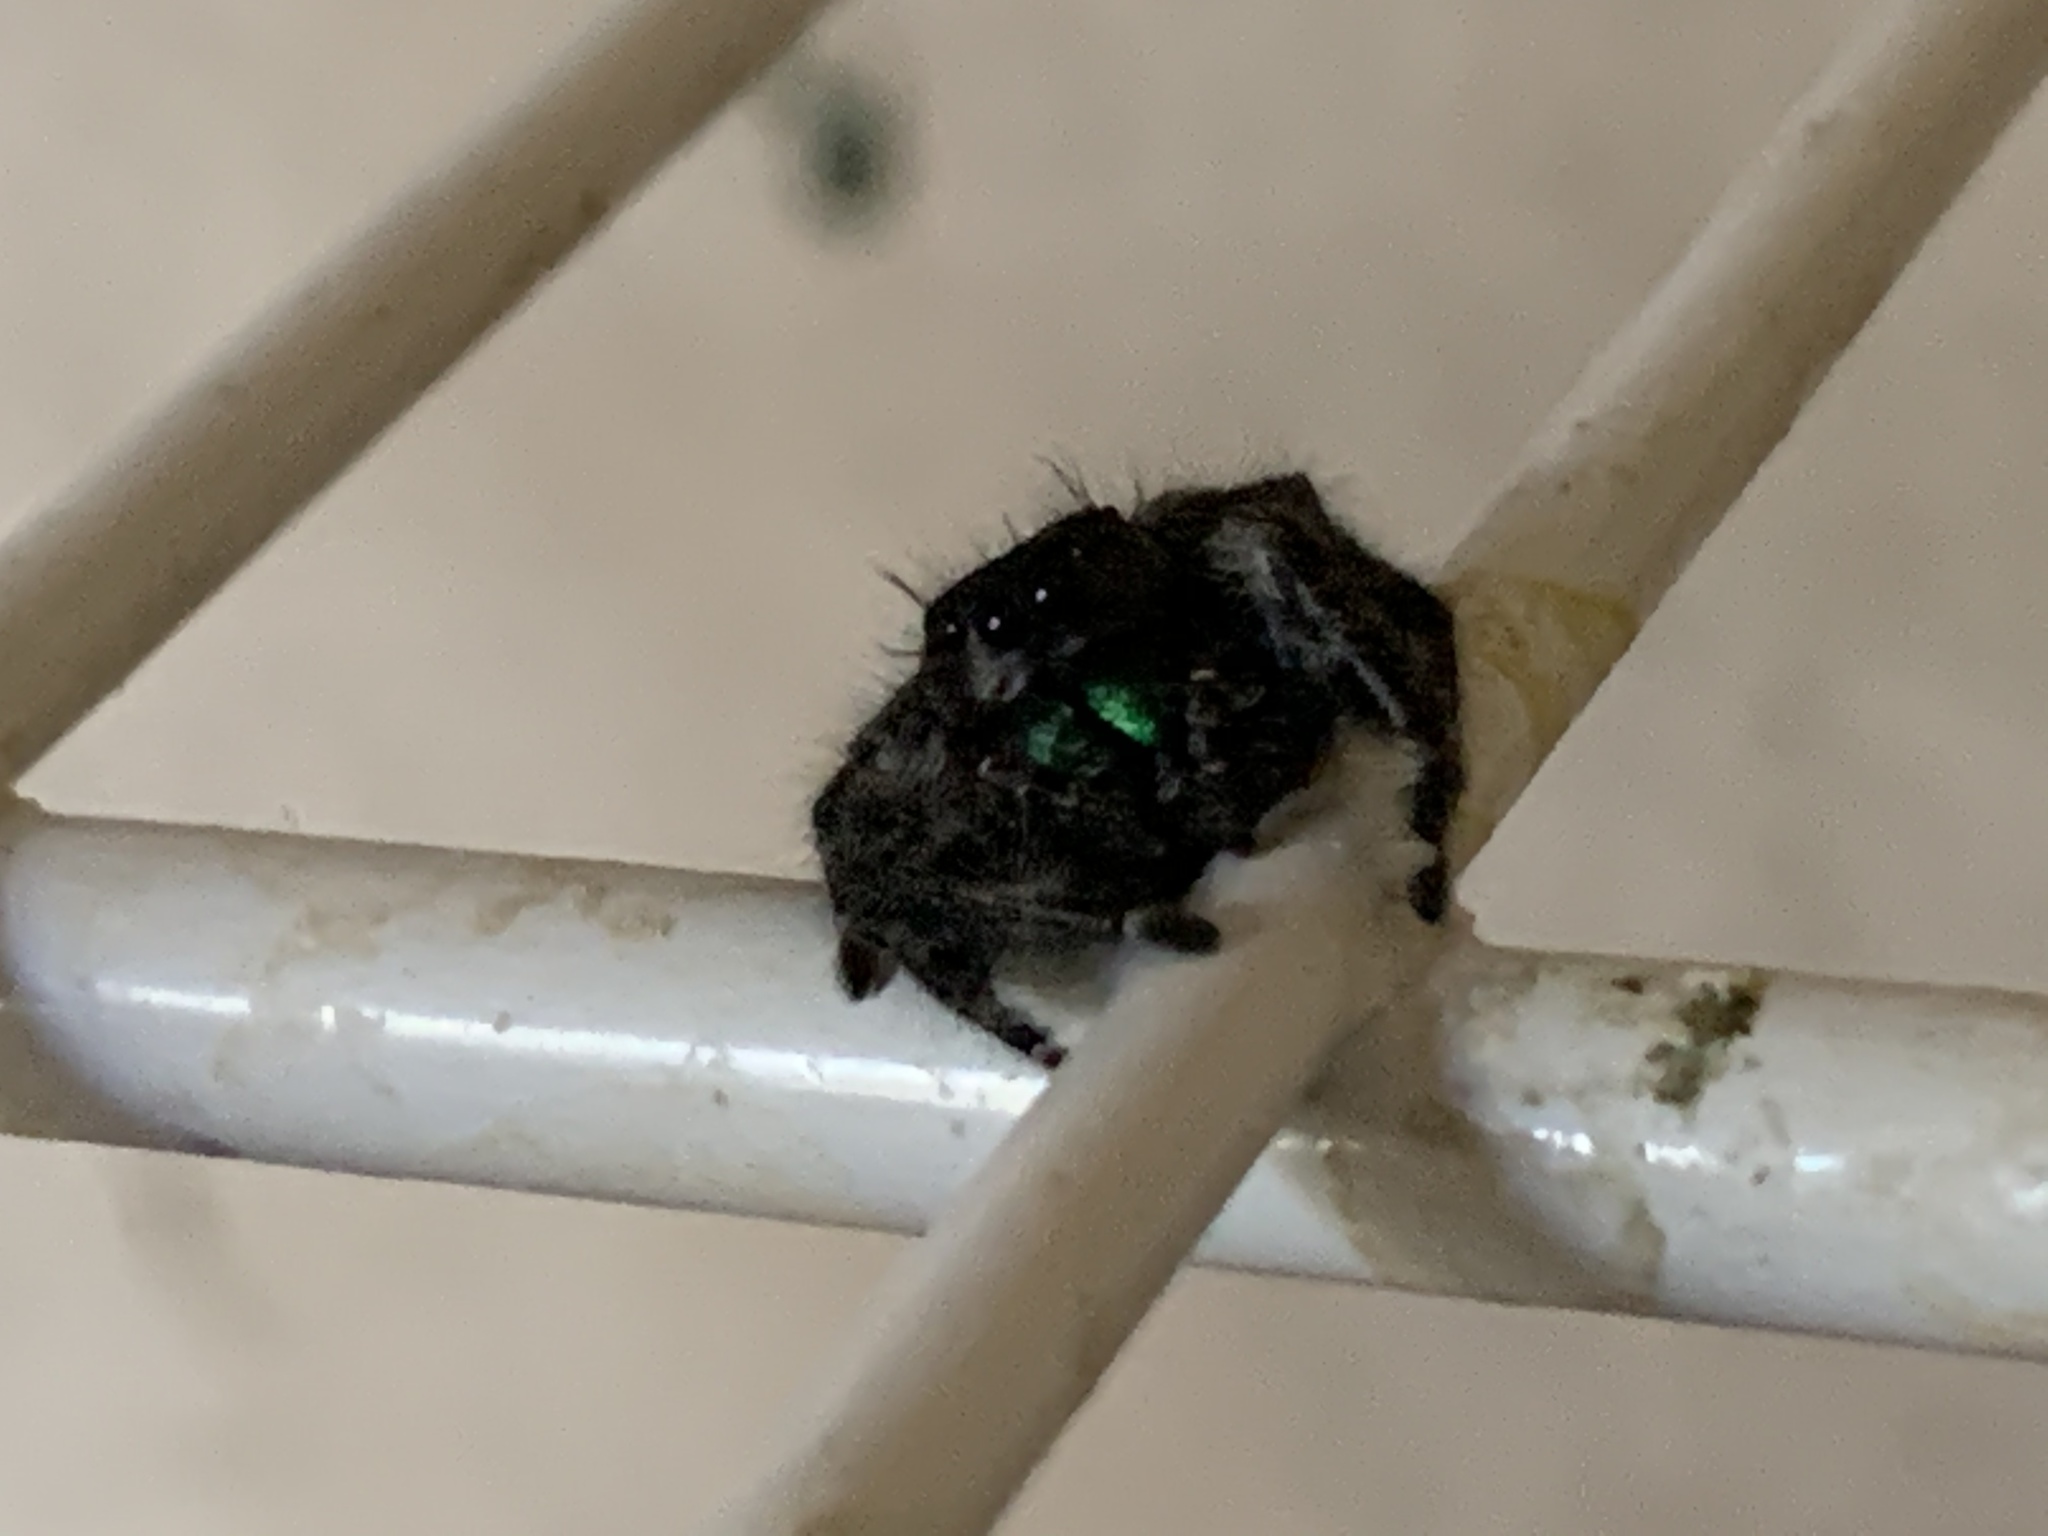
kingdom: Animalia
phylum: Arthropoda
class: Arachnida
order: Araneae
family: Salticidae
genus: Phidippus
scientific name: Phidippus audax
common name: Bold jumper
